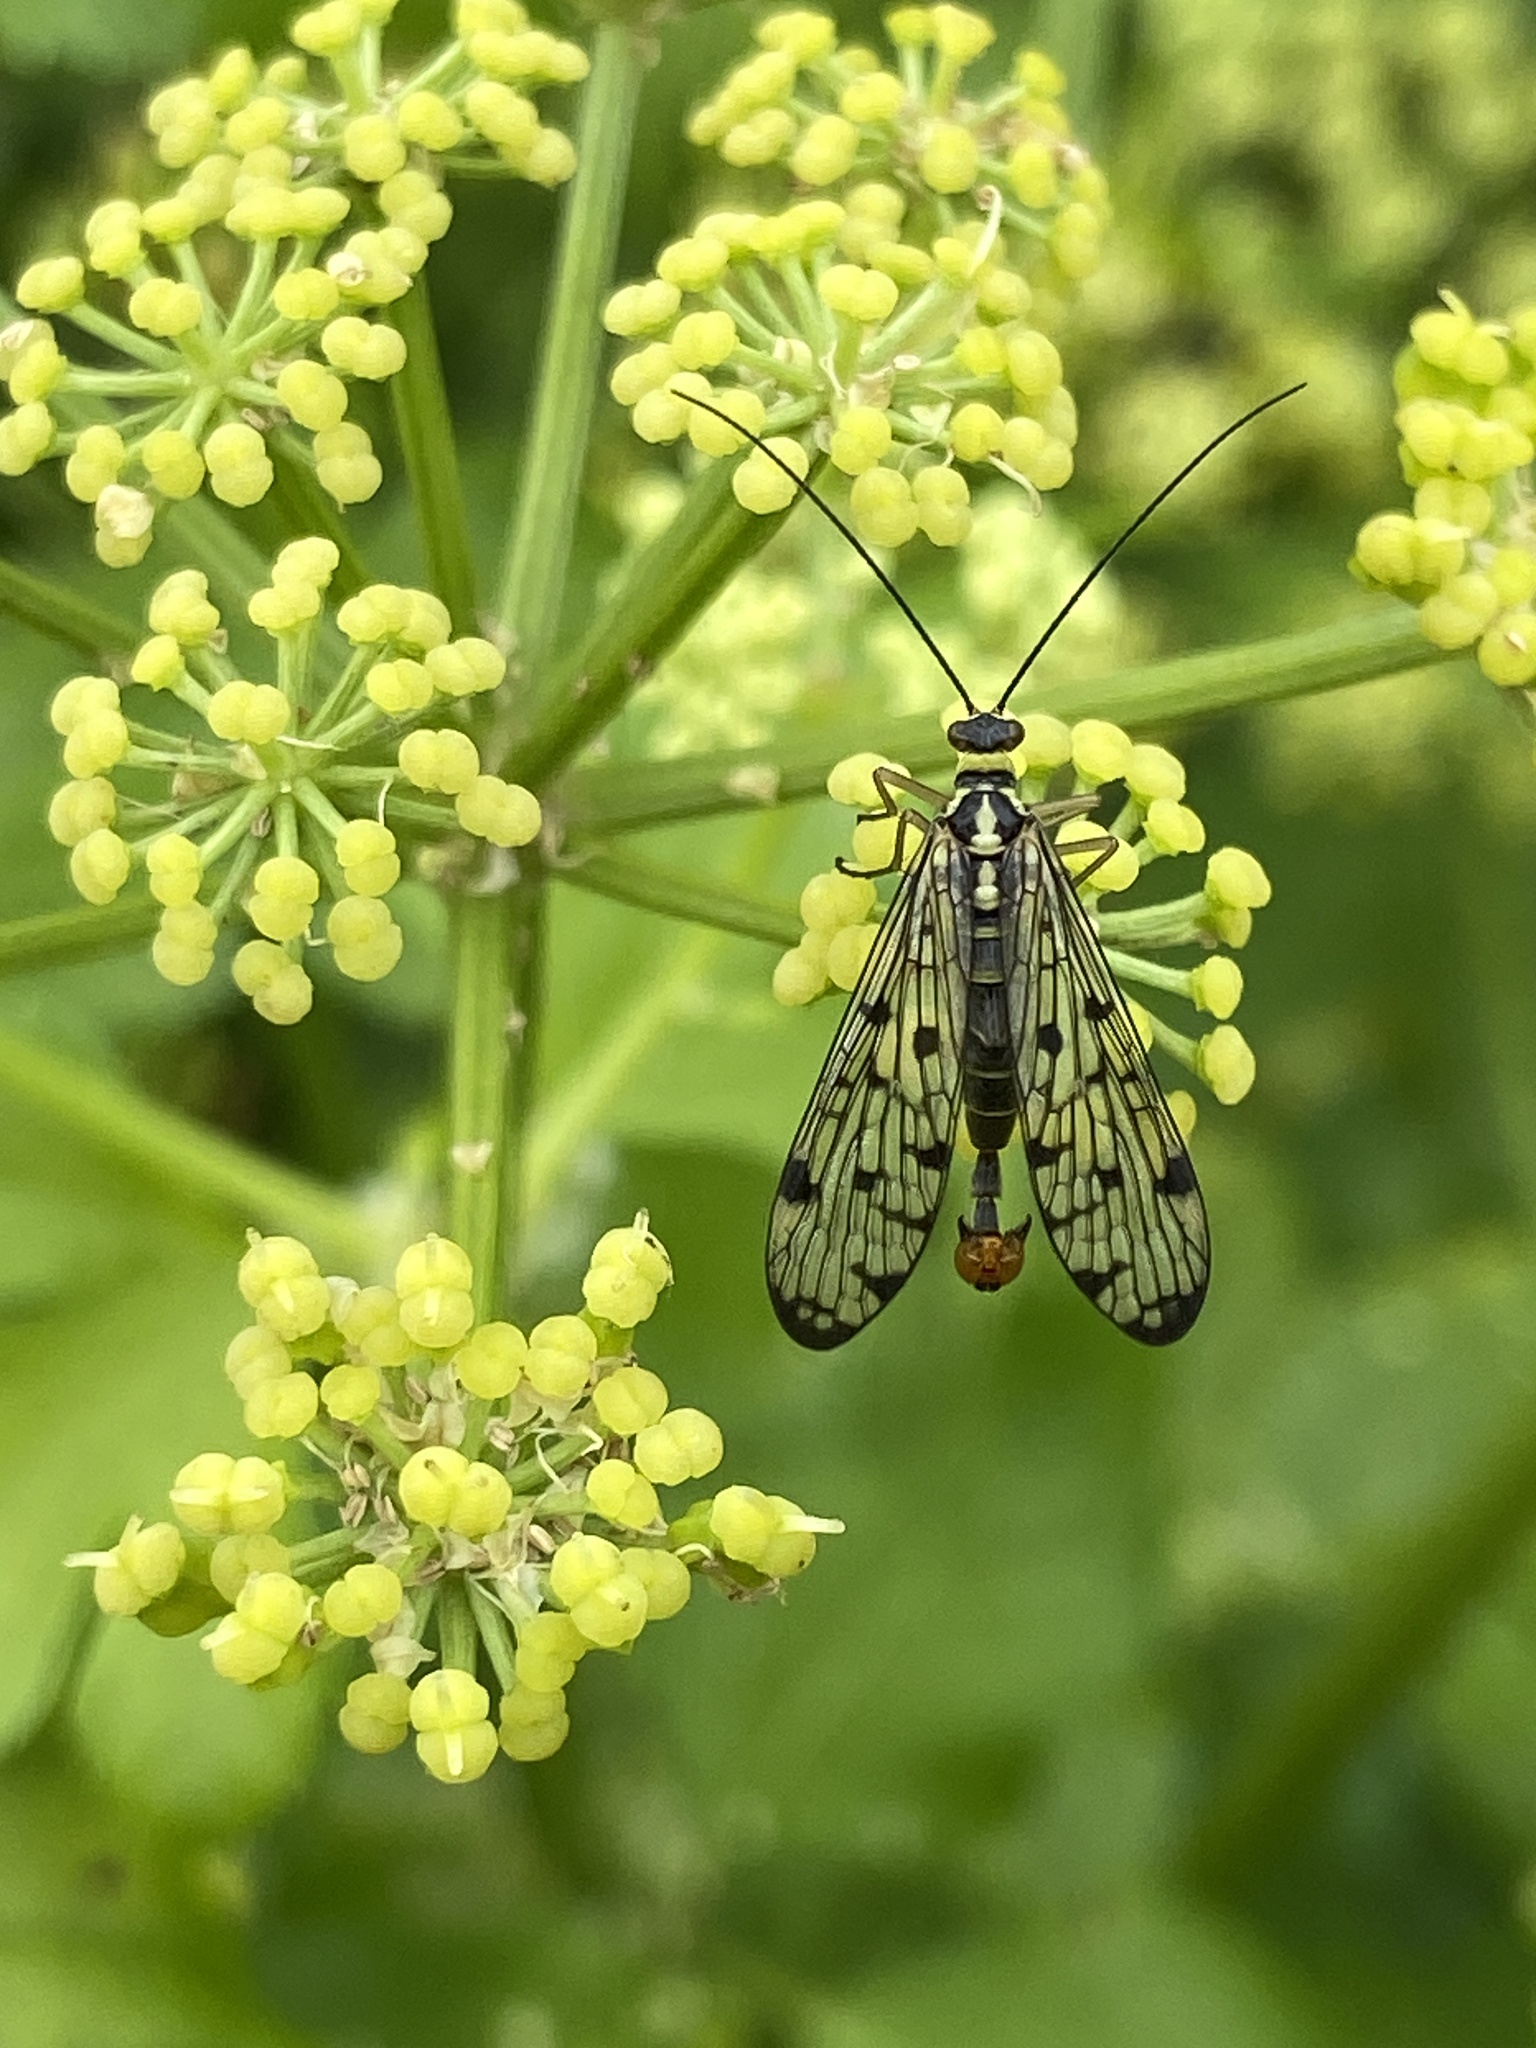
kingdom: Animalia
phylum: Arthropoda
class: Insecta
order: Mecoptera
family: Panorpidae
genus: Panorpa
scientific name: Panorpa germanica
